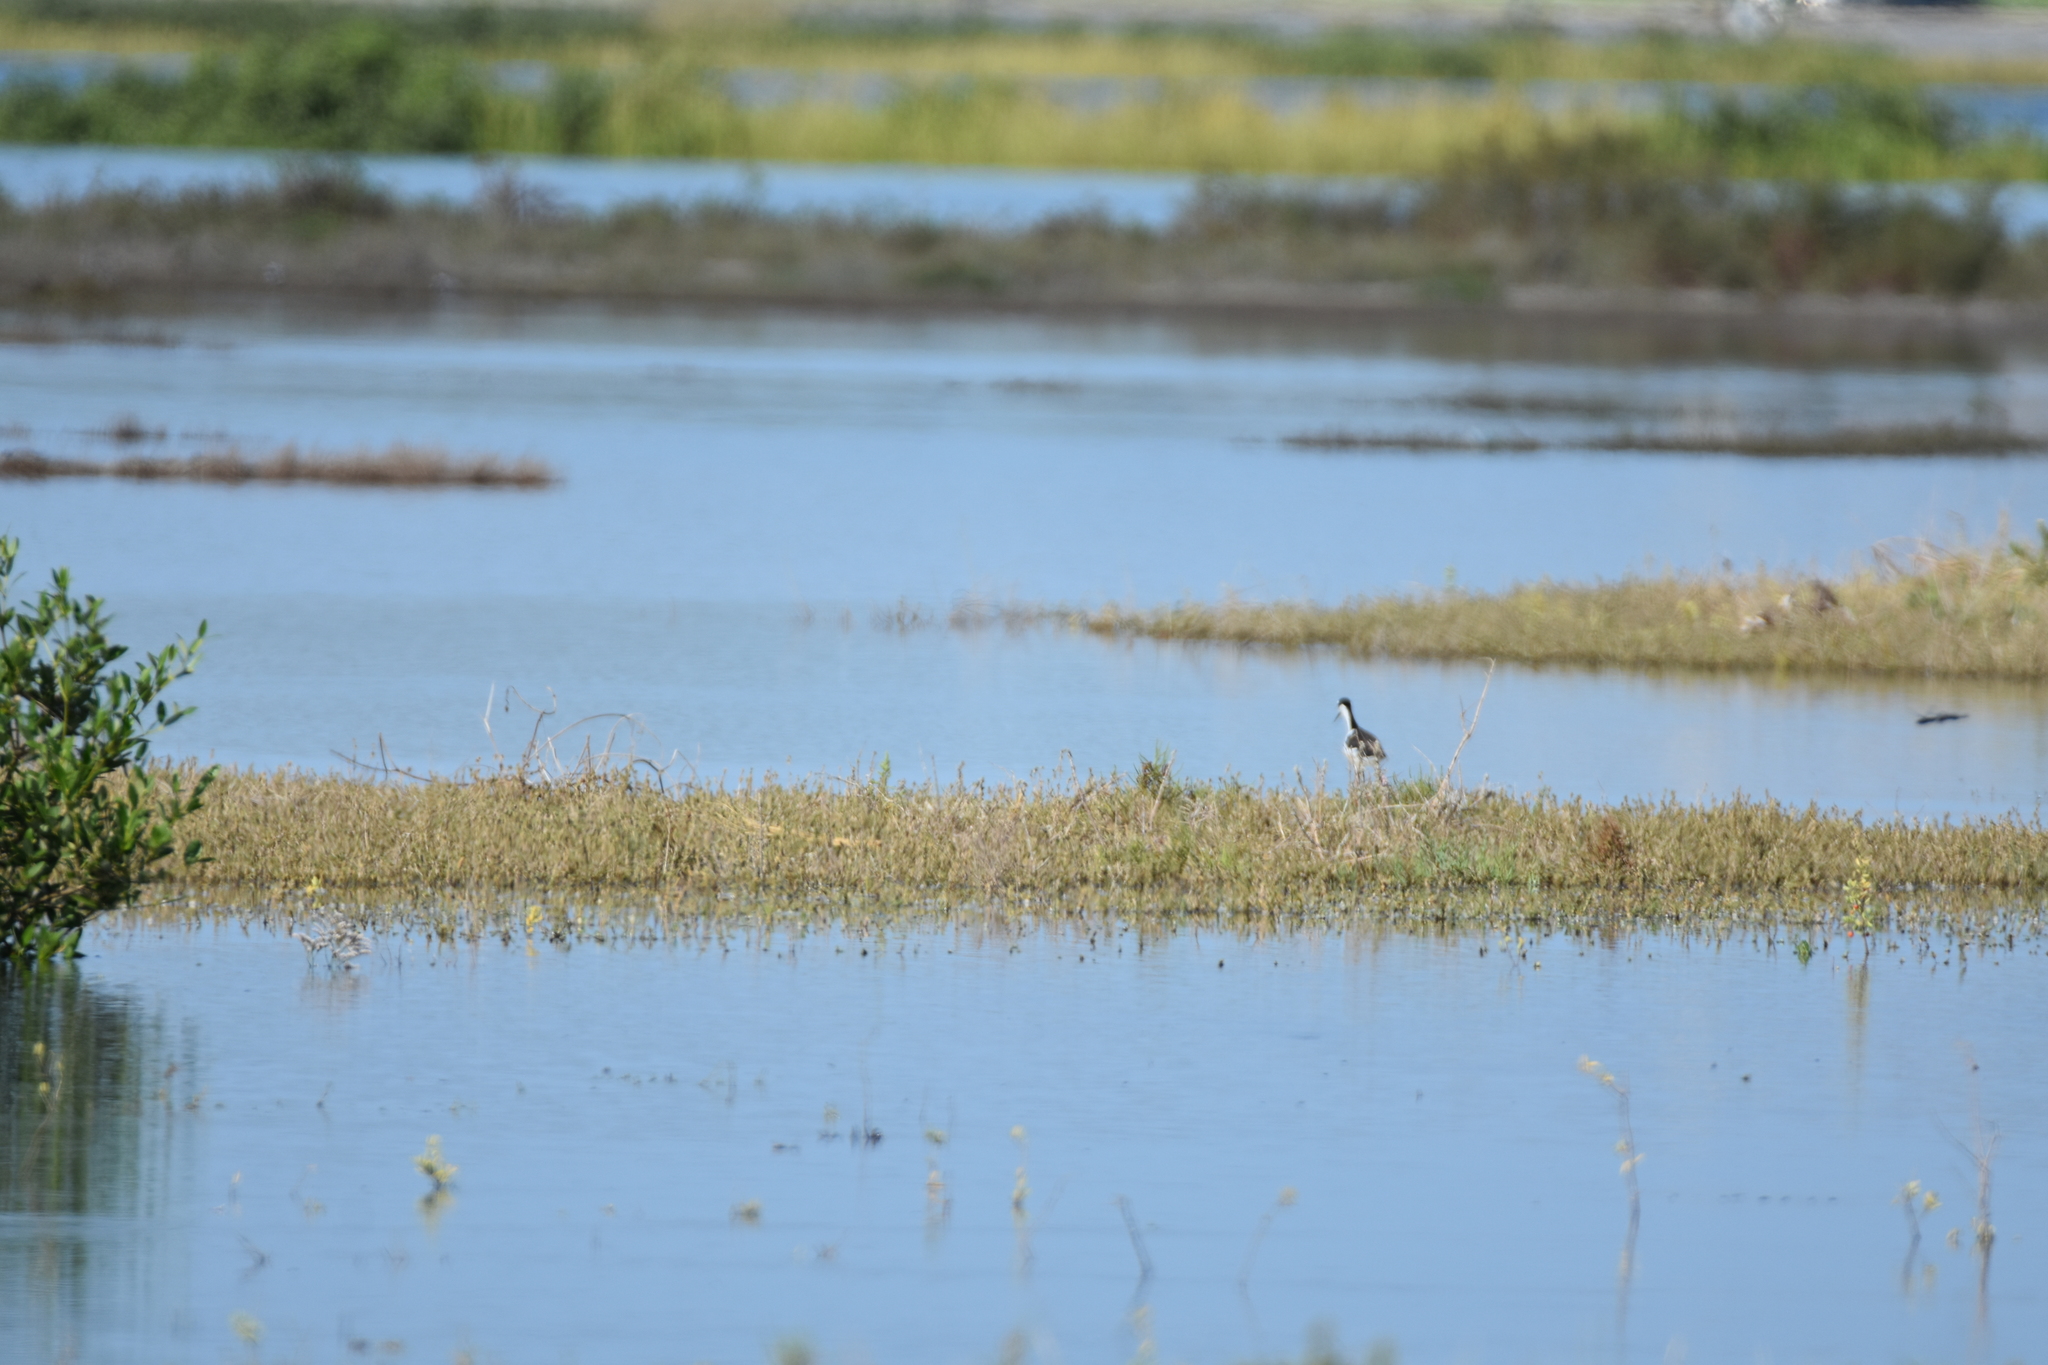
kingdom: Animalia
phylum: Chordata
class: Aves
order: Charadriiformes
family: Recurvirostridae
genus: Himantopus
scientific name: Himantopus mexicanus
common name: Black-necked stilt
